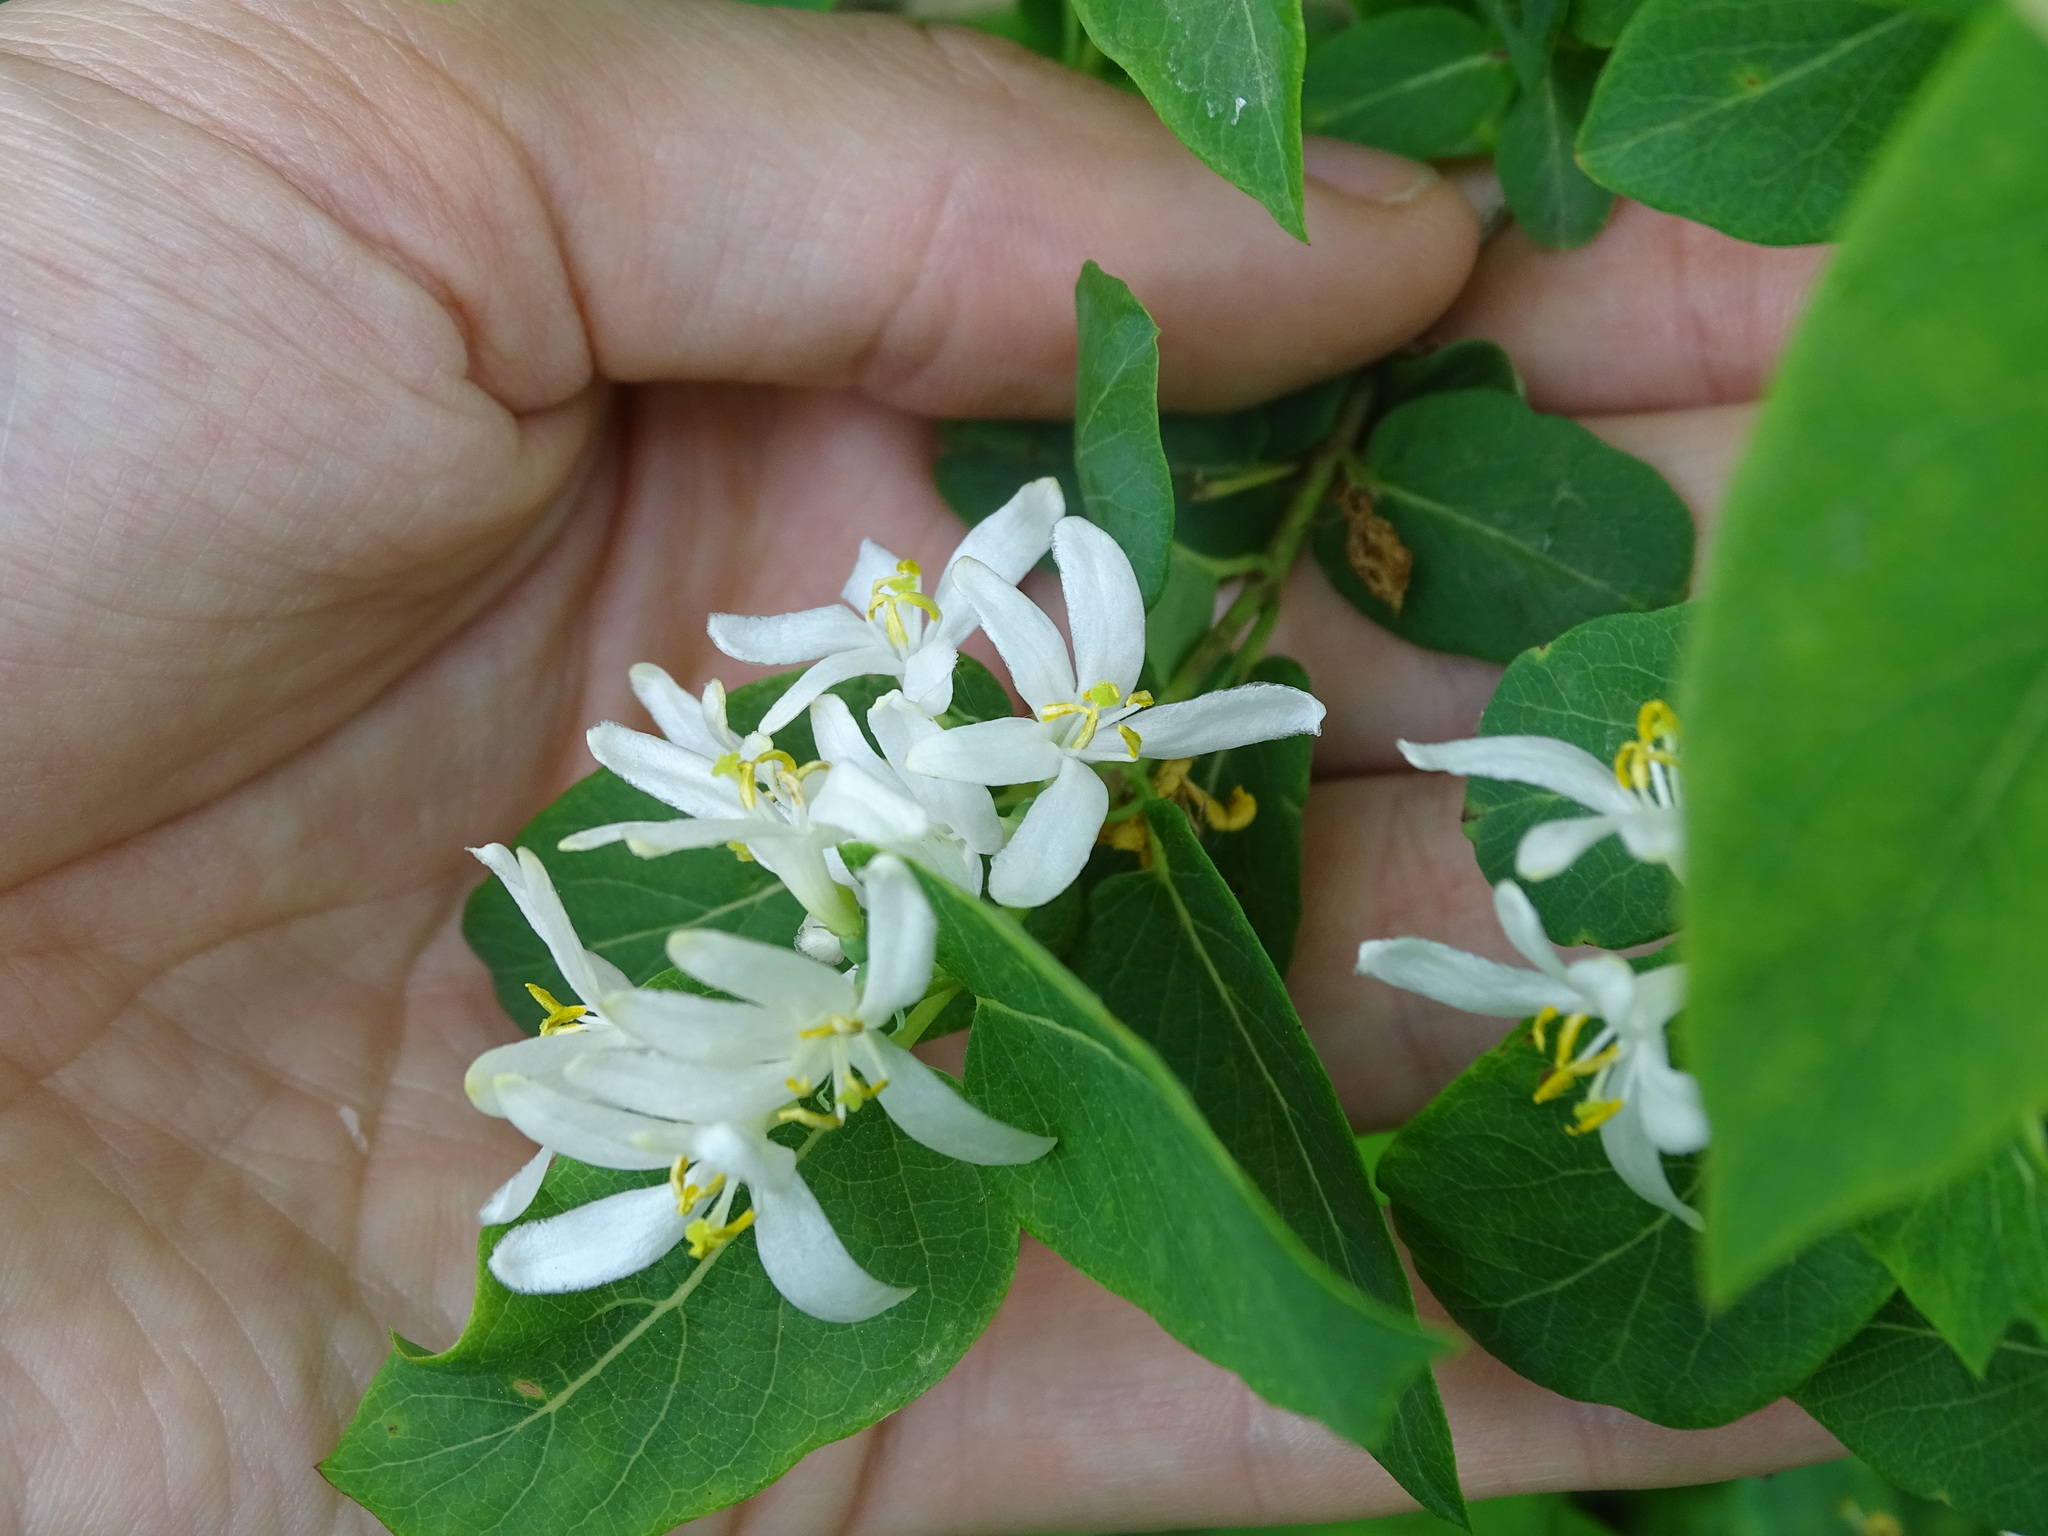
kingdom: Plantae
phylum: Tracheophyta
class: Magnoliopsida
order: Dipsacales
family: Caprifoliaceae
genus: Lonicera
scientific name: Lonicera tatarica
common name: Tatarian honeysuckle
